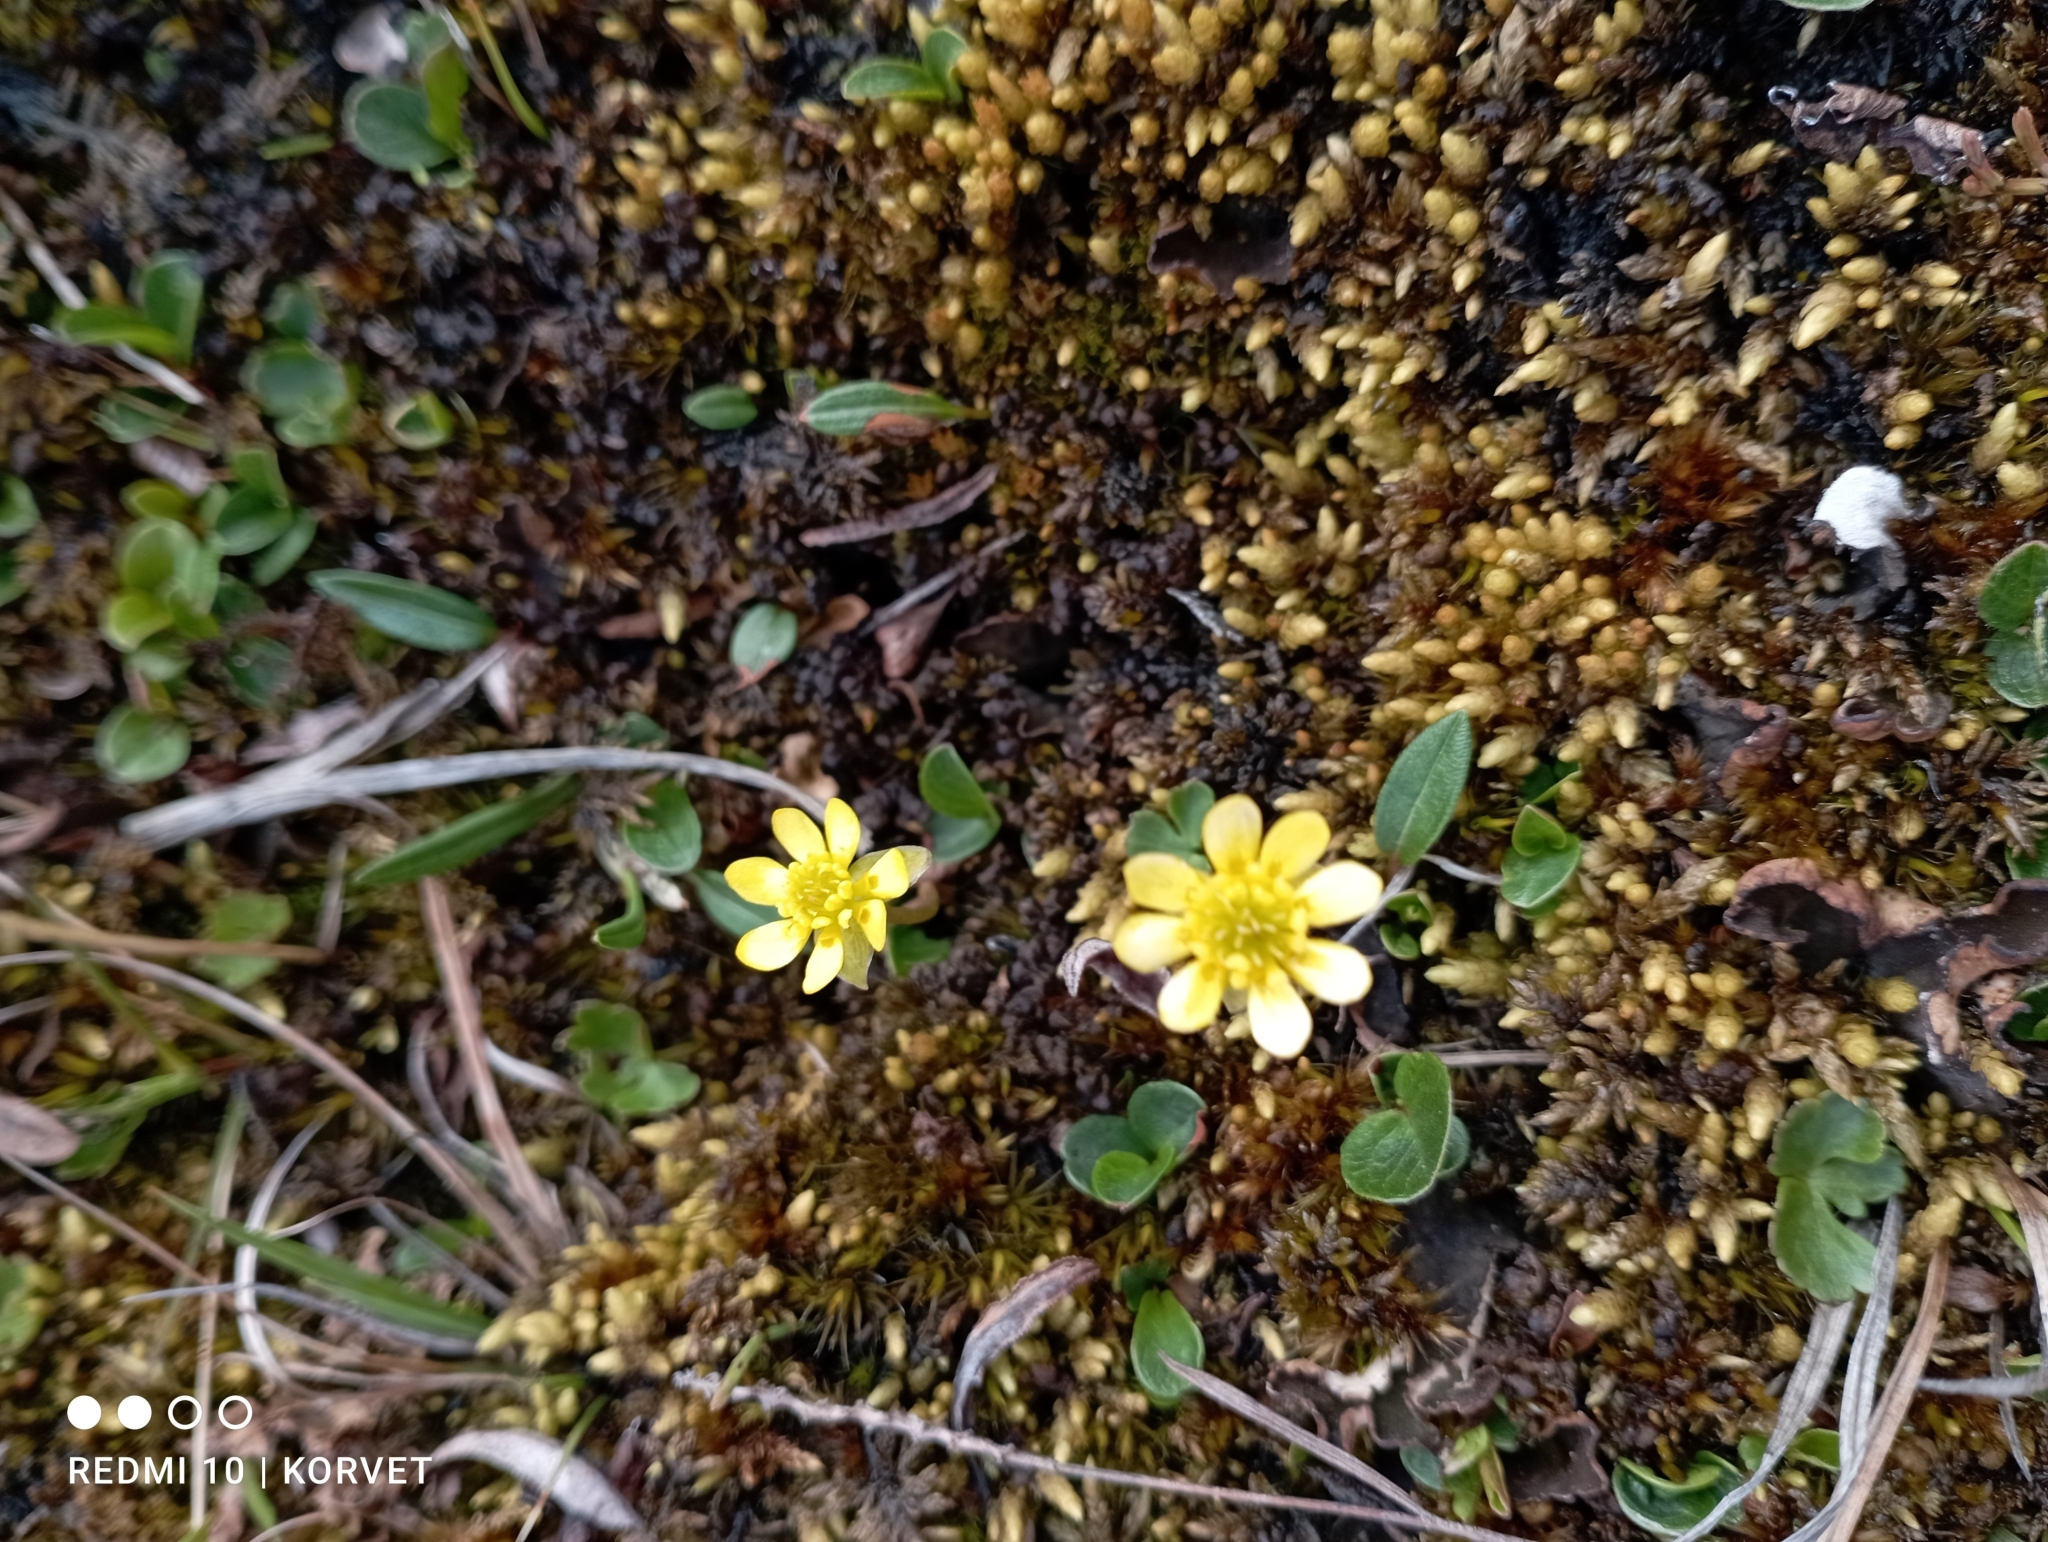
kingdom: Plantae
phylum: Tracheophyta
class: Magnoliopsida
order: Ranunculales
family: Ranunculaceae
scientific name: Ranunculaceae
